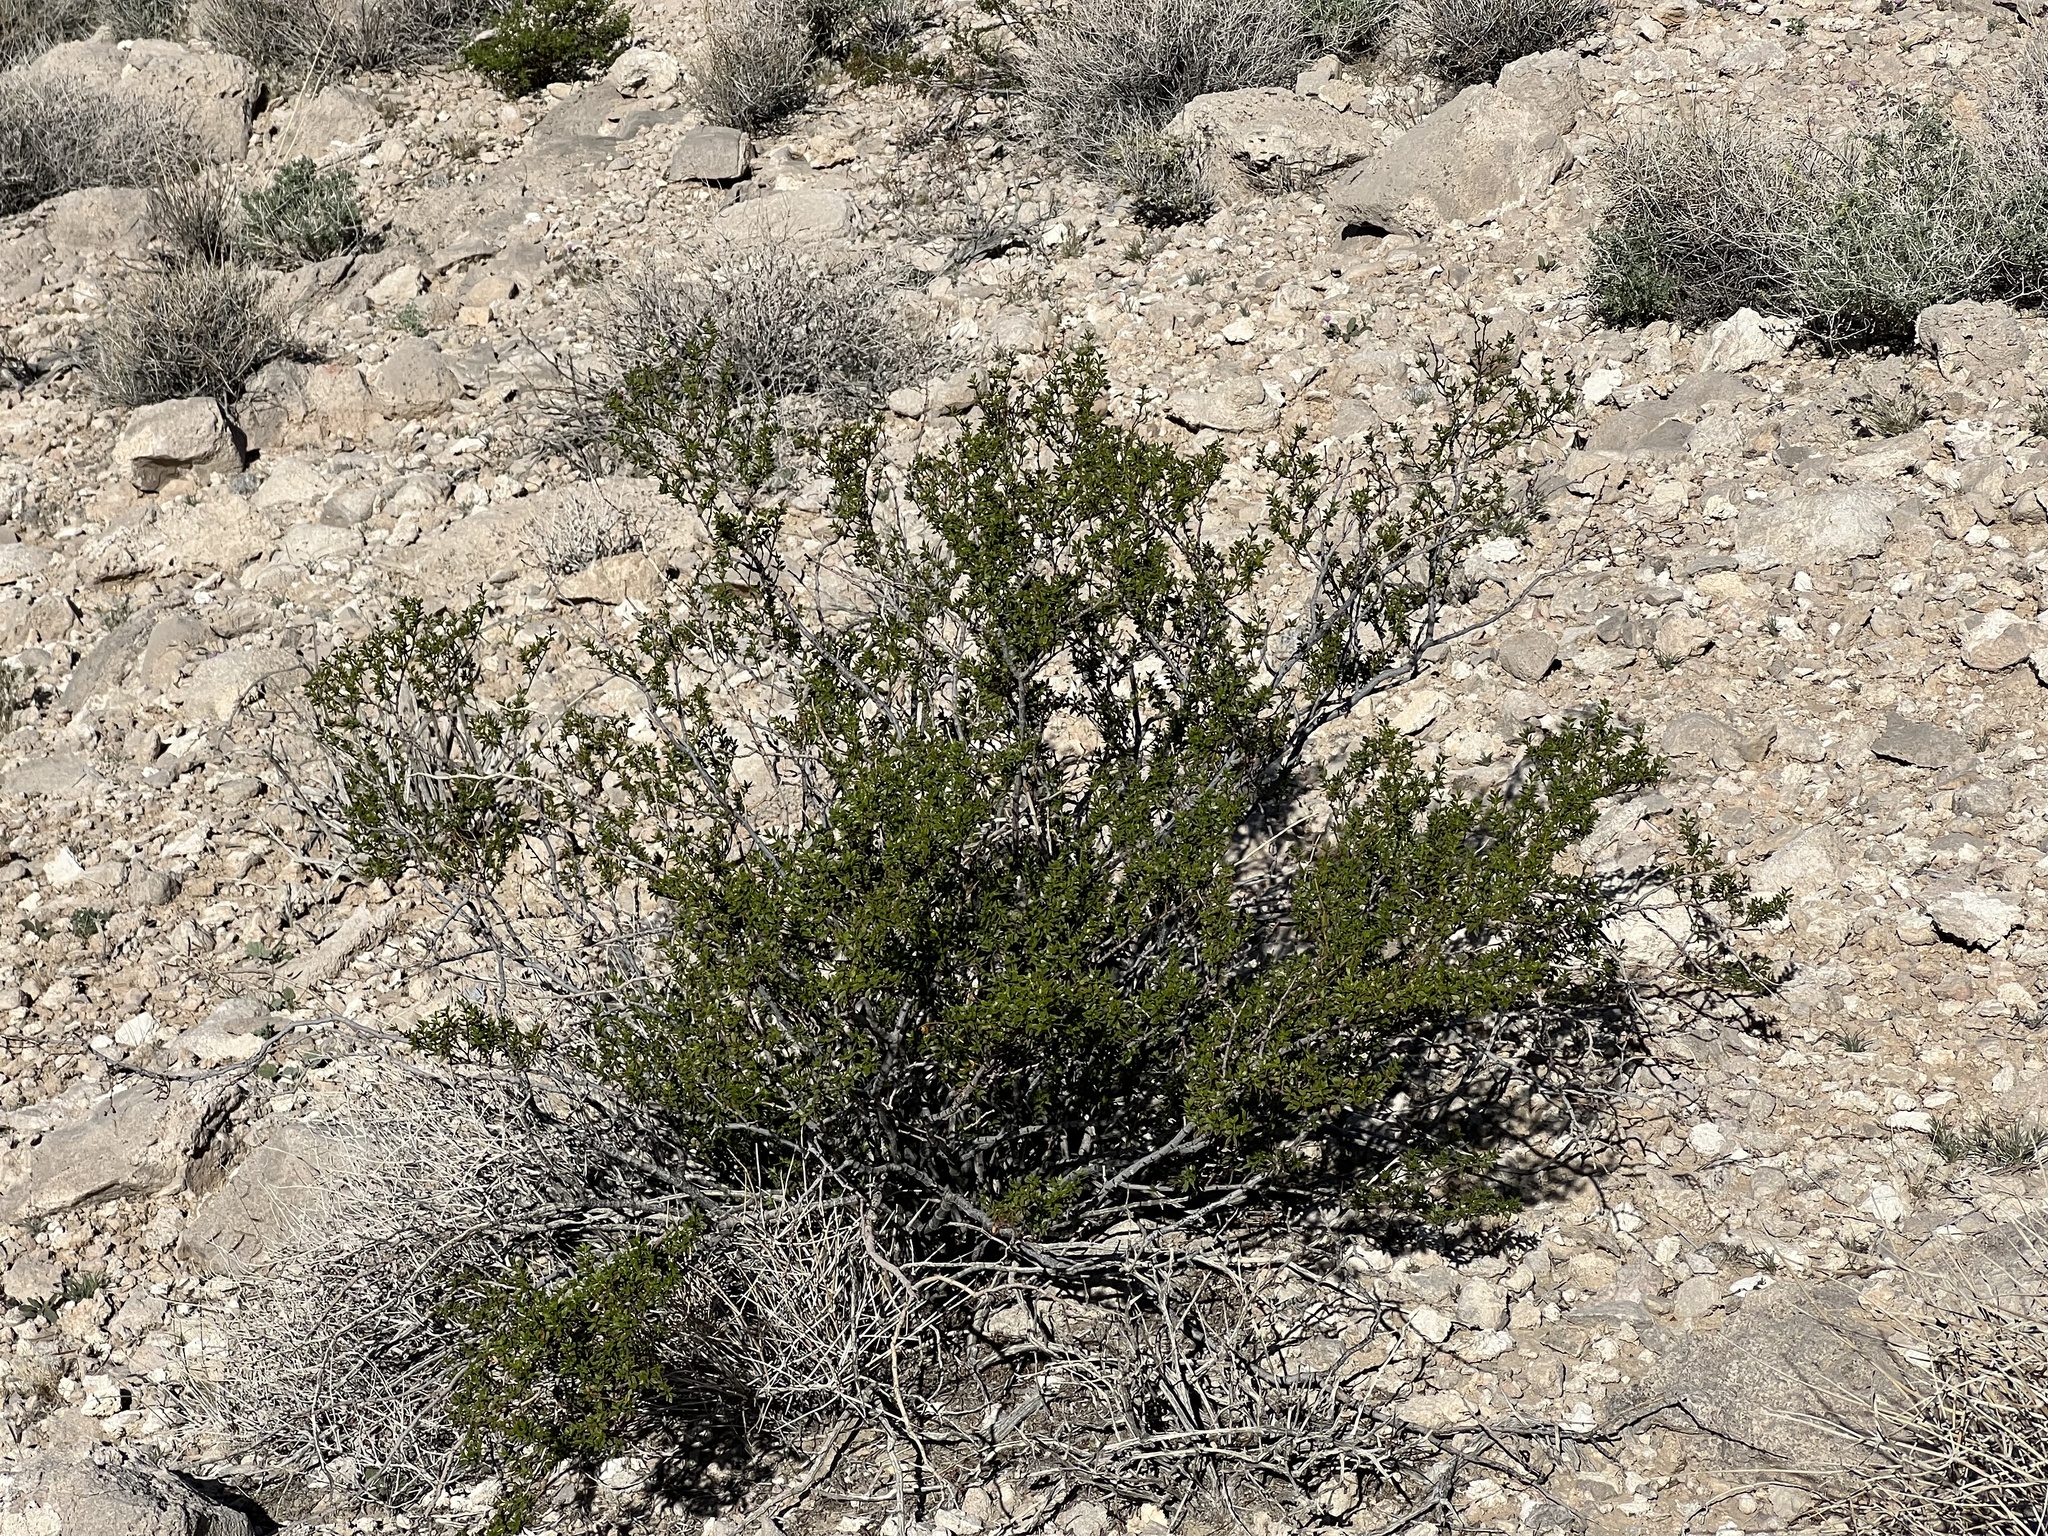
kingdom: Plantae
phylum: Tracheophyta
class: Magnoliopsida
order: Zygophyllales
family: Zygophyllaceae
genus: Larrea
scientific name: Larrea tridentata
